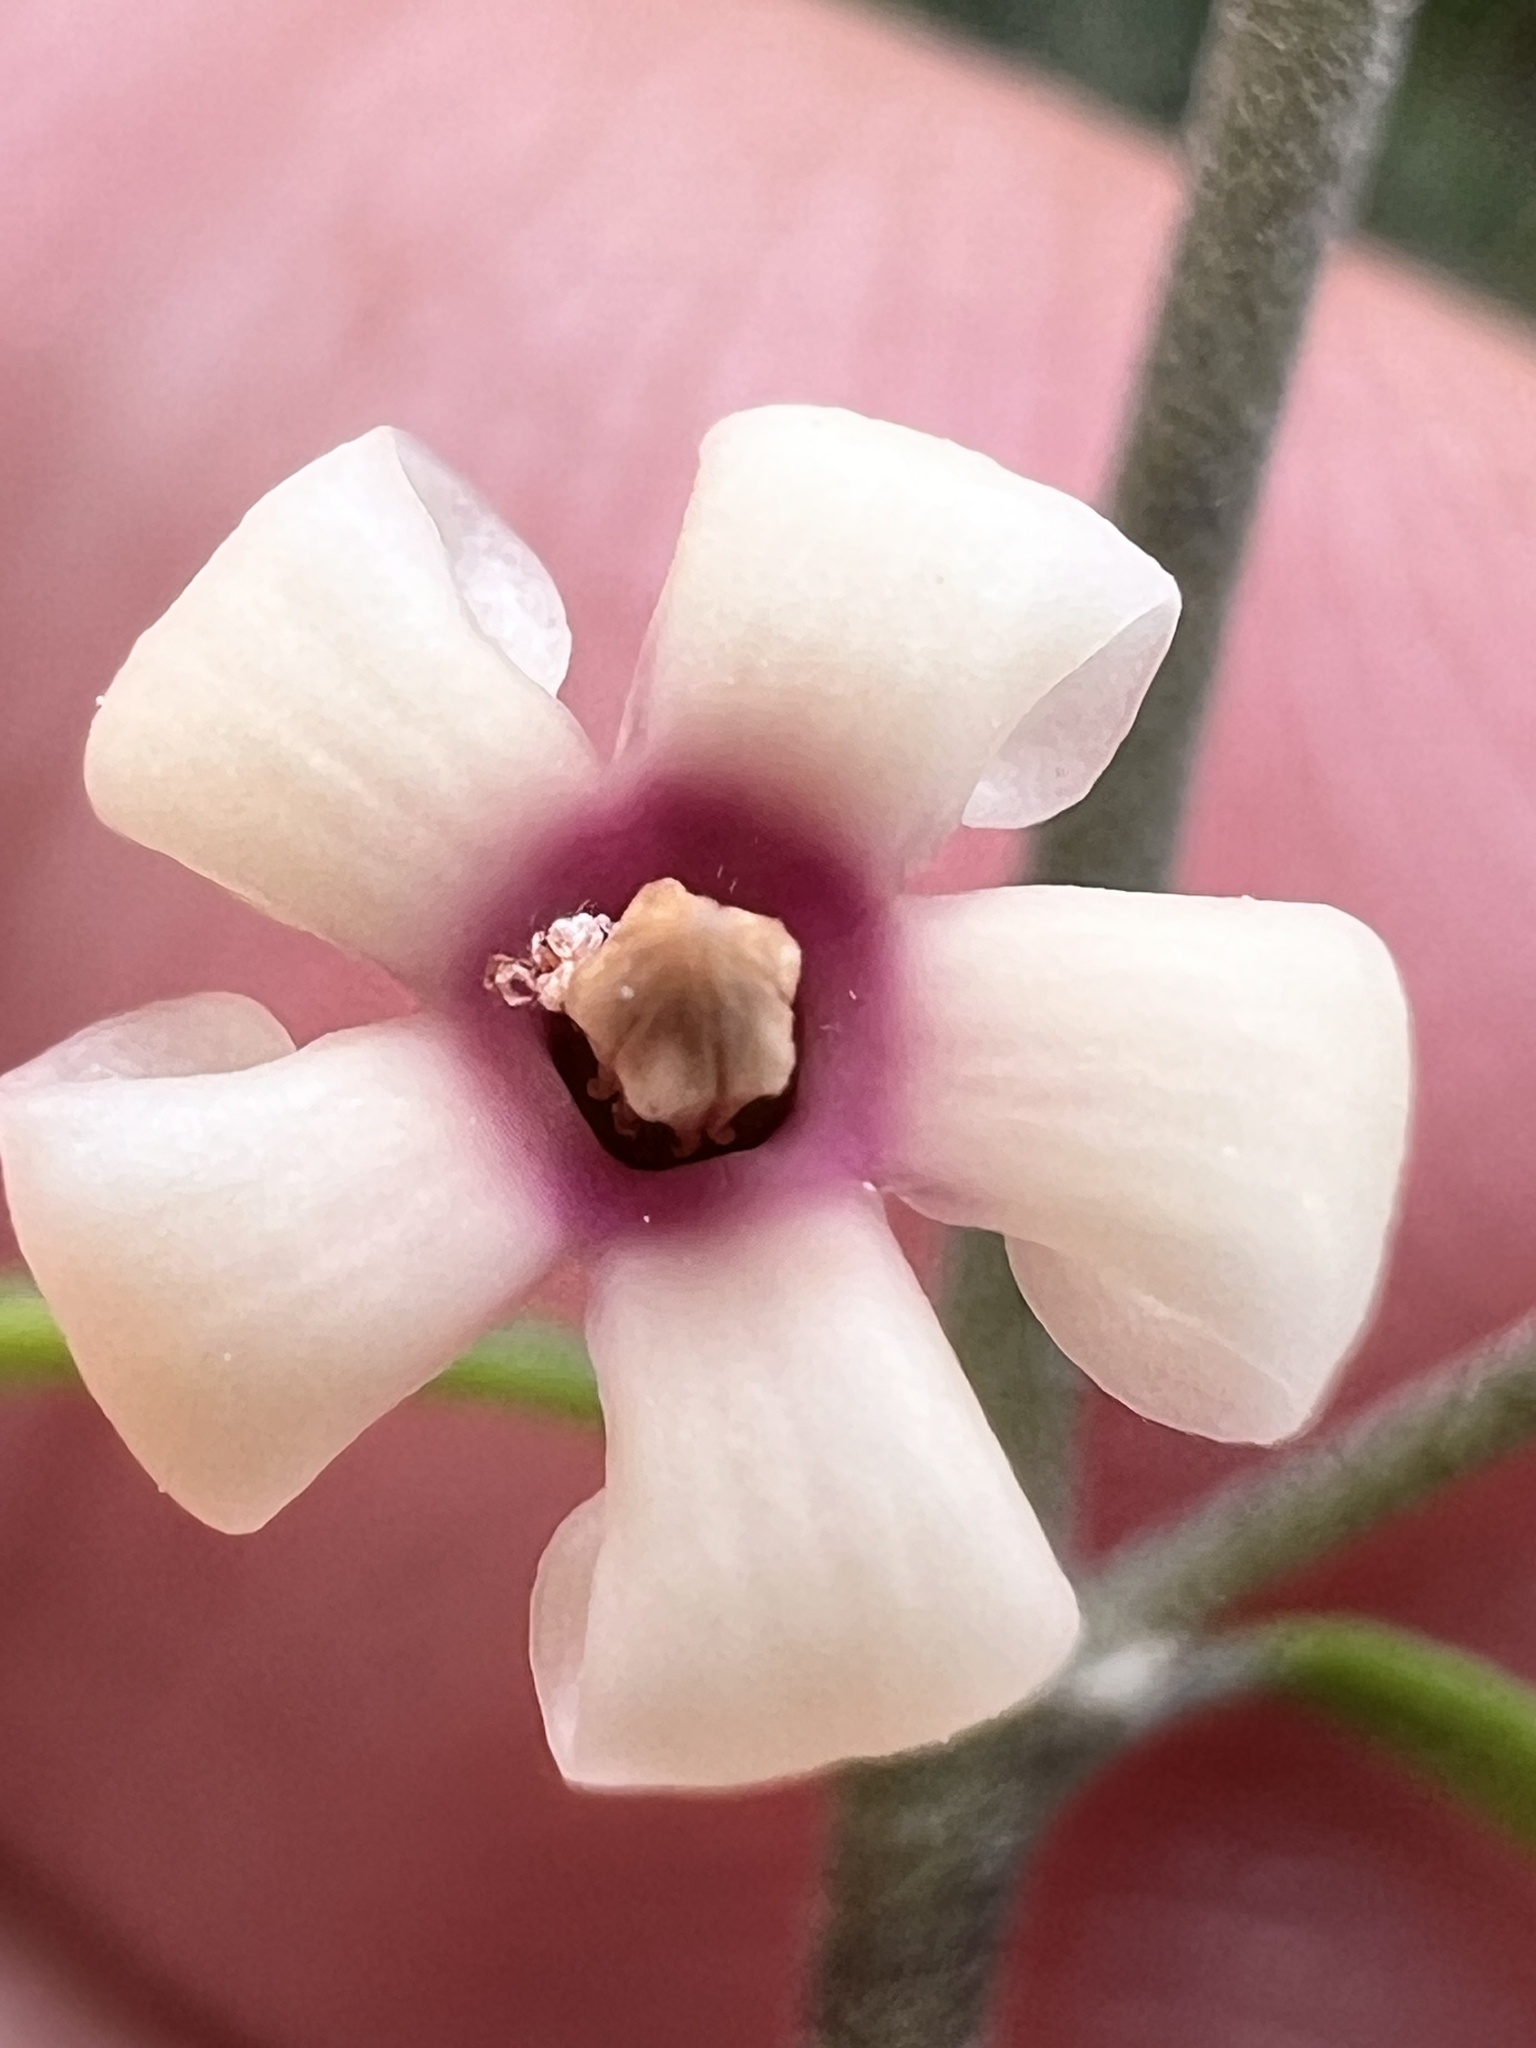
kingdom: Plantae
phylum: Tracheophyta
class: Magnoliopsida
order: Gentianales
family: Apocynaceae
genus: Parsonsia
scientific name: Parsonsia capsularis
